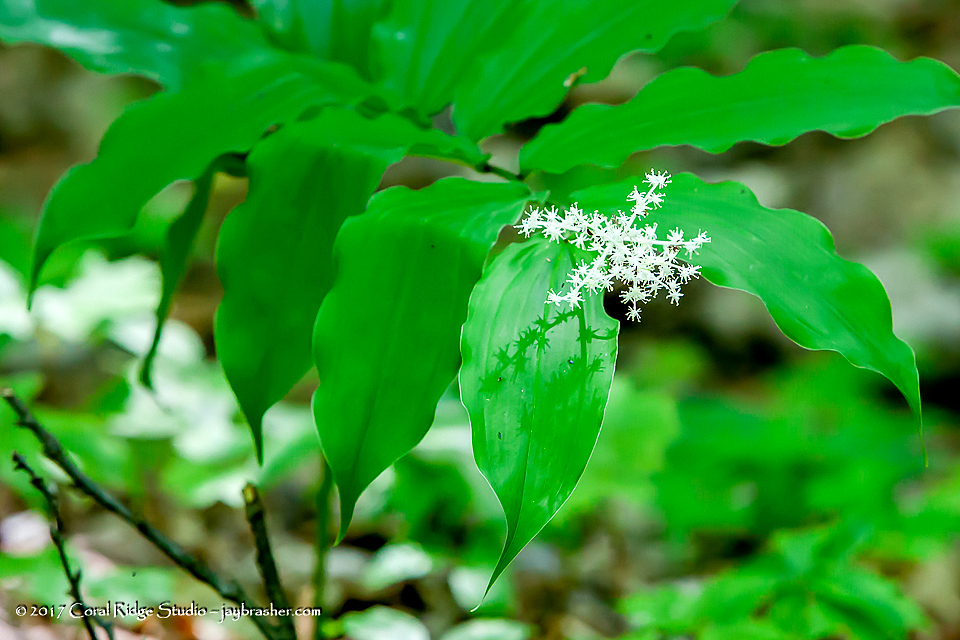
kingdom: Plantae
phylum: Tracheophyta
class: Liliopsida
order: Asparagales
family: Asparagaceae
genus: Maianthemum
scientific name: Maianthemum racemosum
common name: False spikenard
